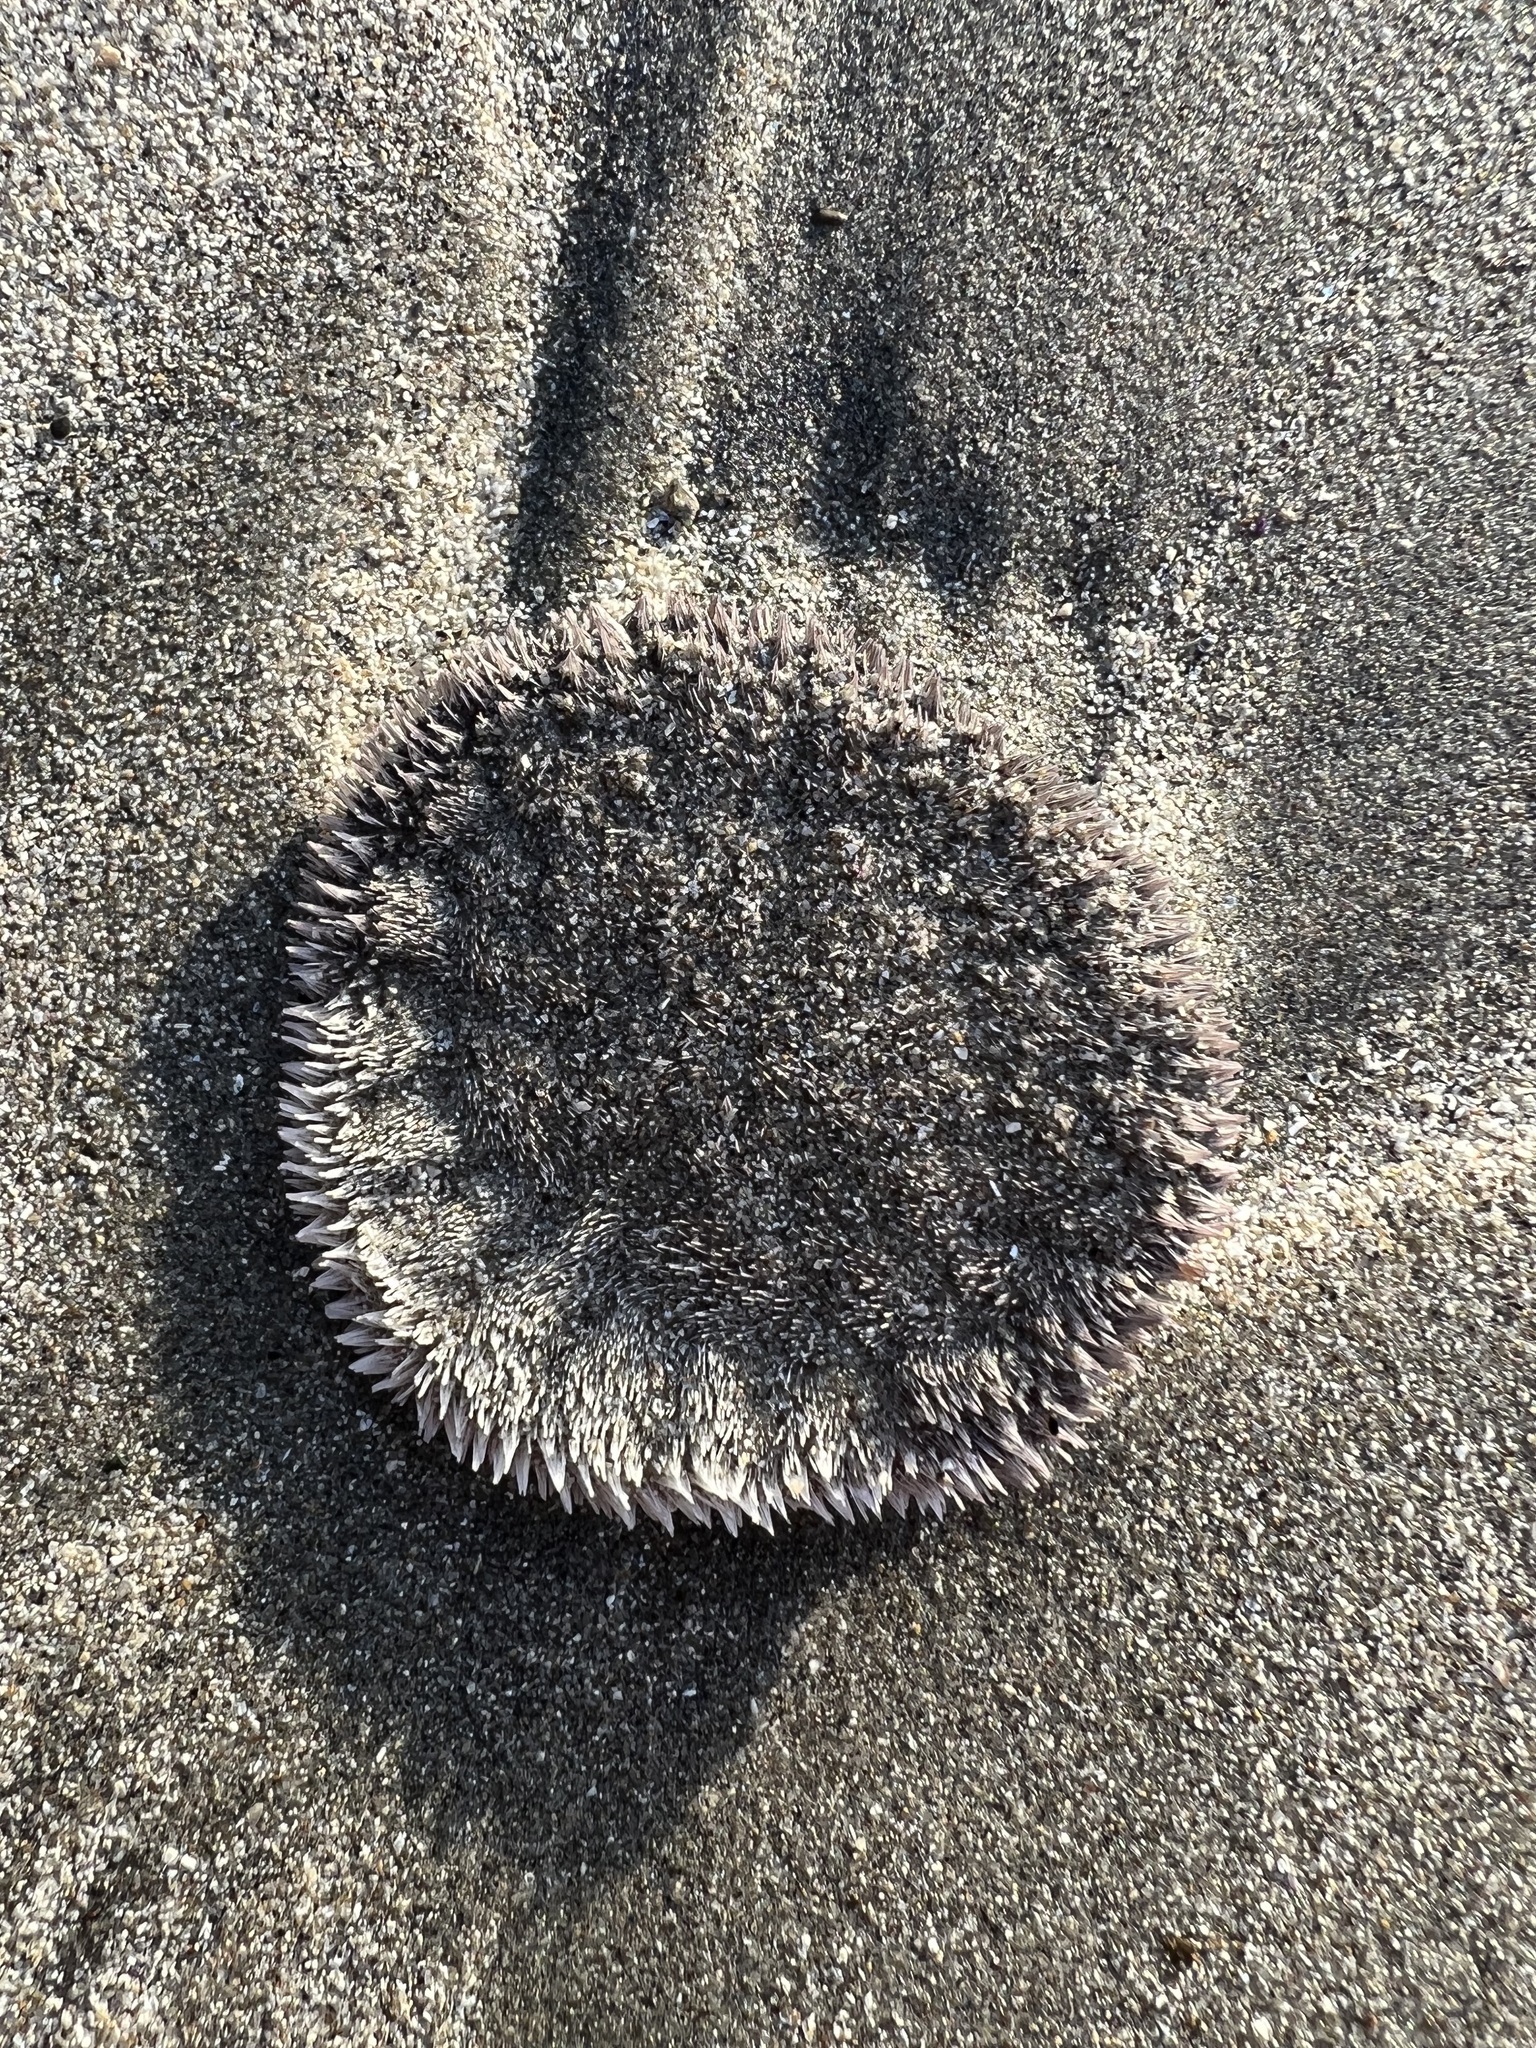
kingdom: Animalia
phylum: Echinodermata
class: Echinoidea
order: Echinolampadacea
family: Dendrasteridae
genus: Dendraster
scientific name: Dendraster excentricus
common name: Eccentric sand dollar sea urchin
